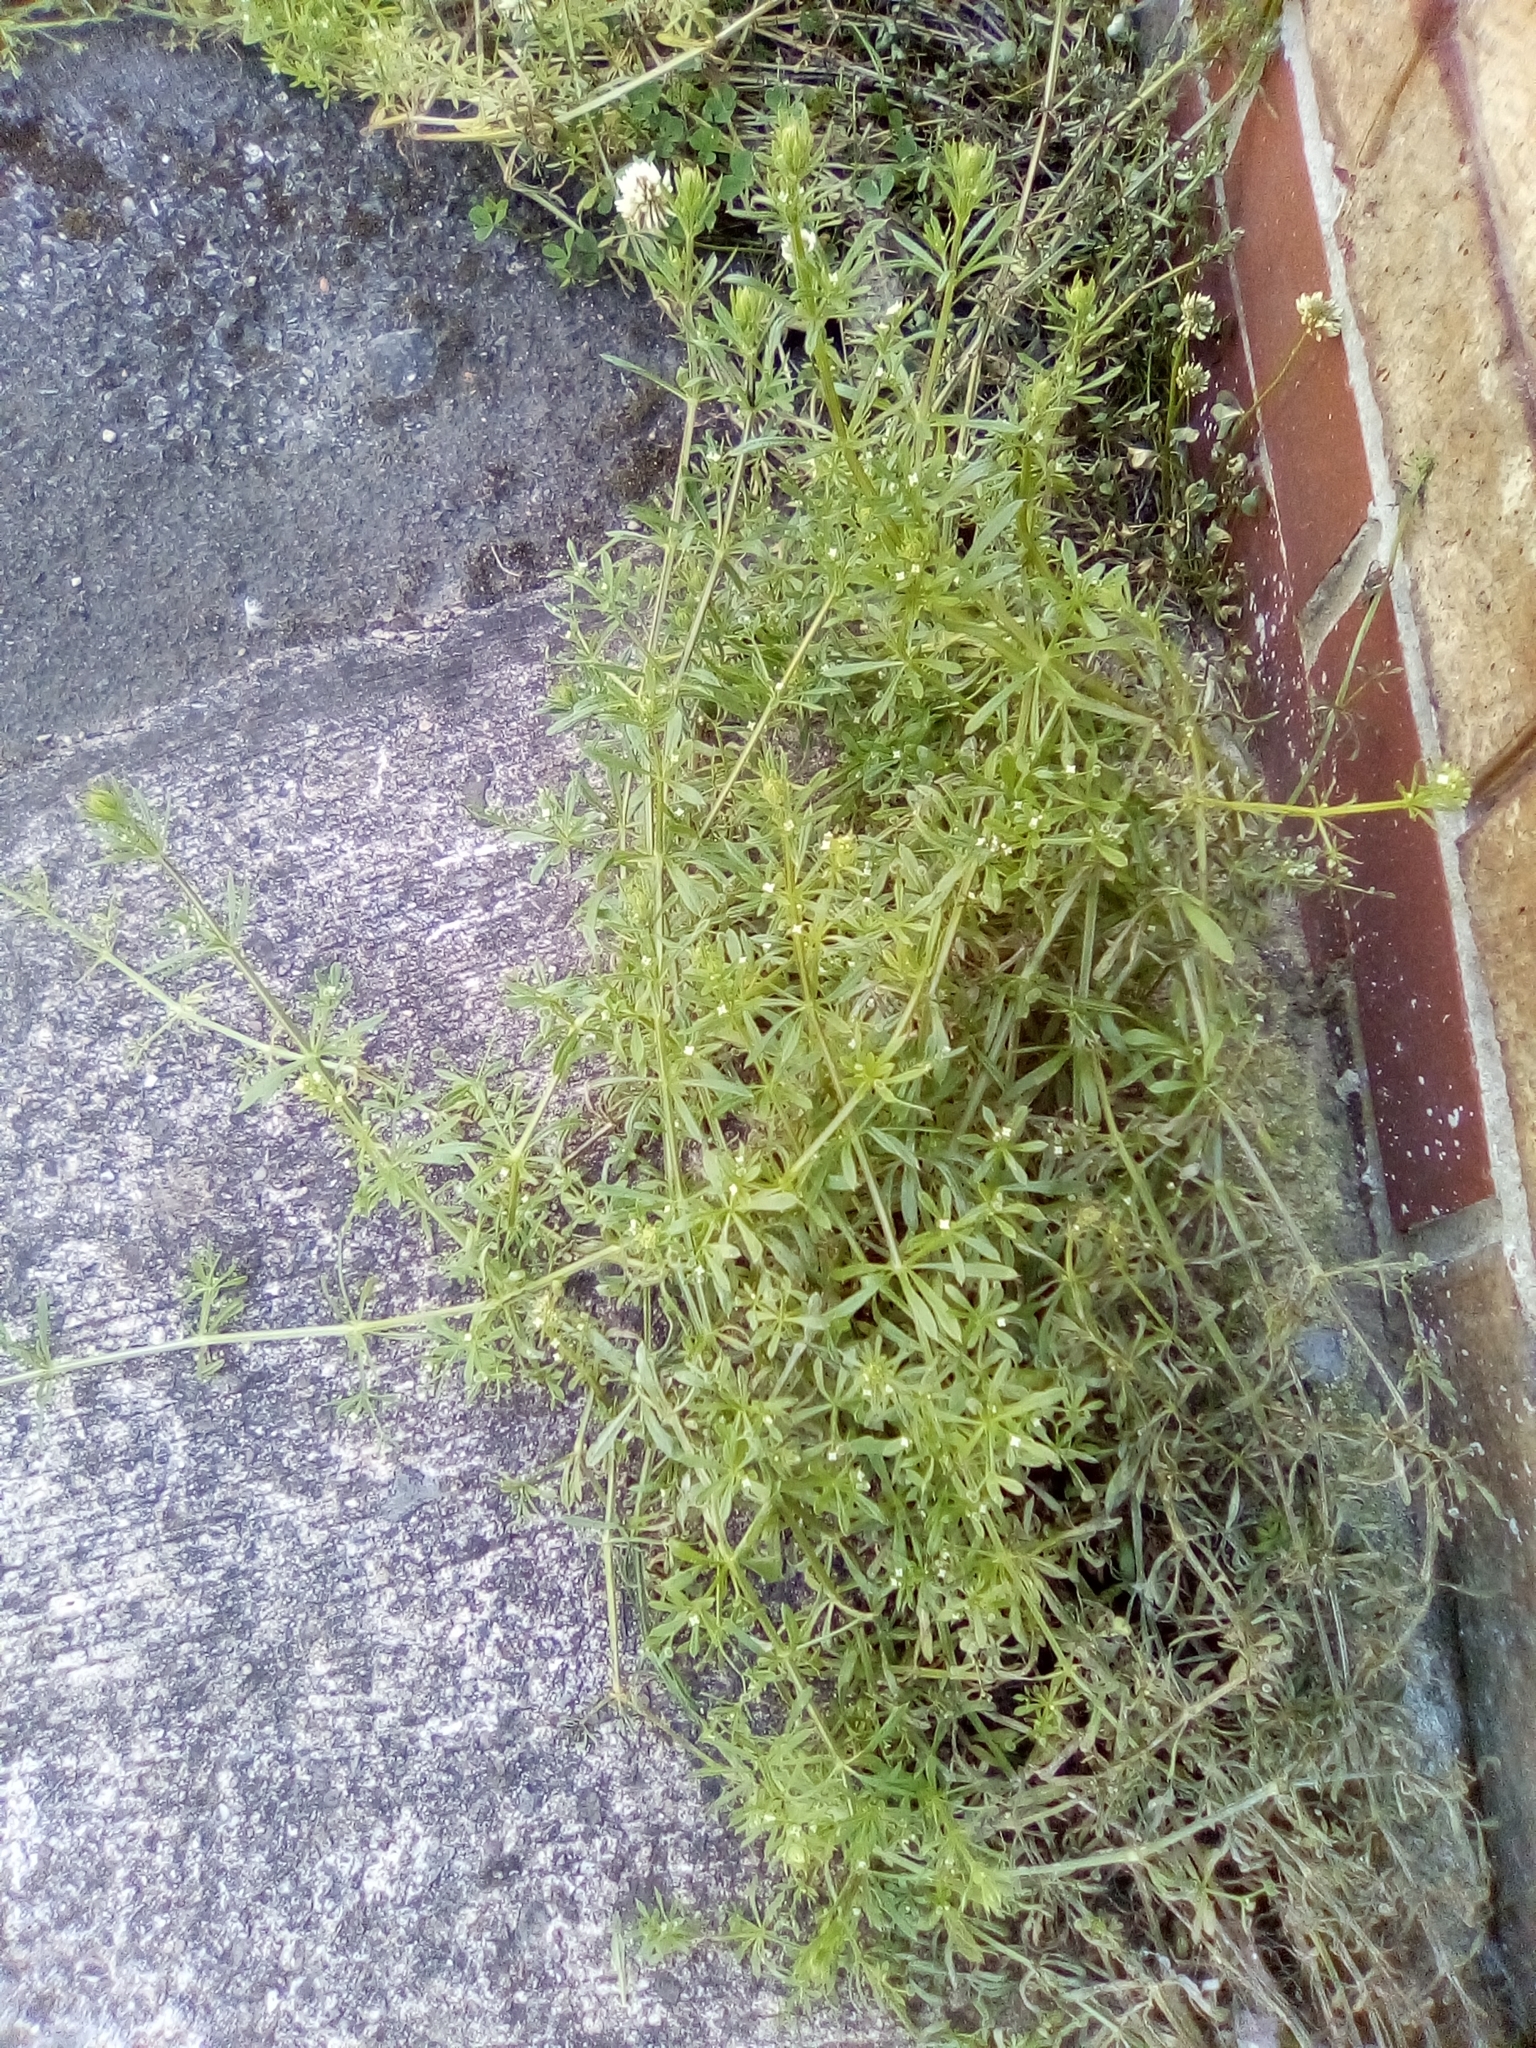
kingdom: Plantae
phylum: Tracheophyta
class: Magnoliopsida
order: Gentianales
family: Rubiaceae
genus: Galium
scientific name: Galium aparine
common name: Cleavers
